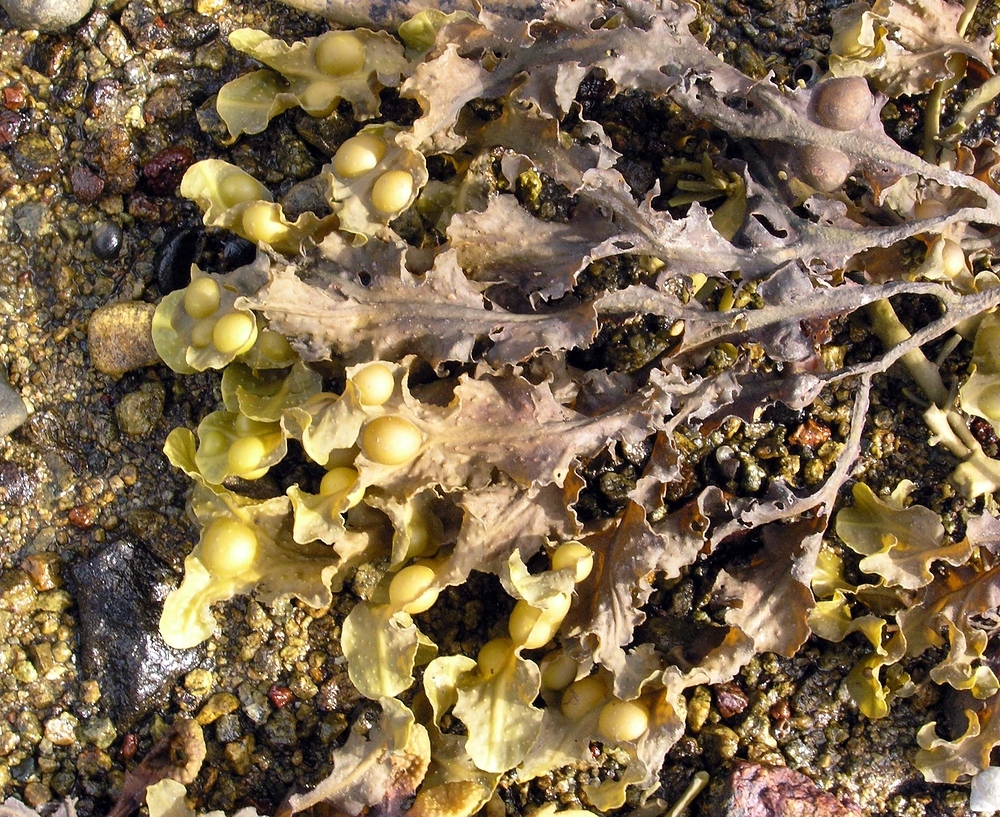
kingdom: Chromista
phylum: Ochrophyta
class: Phaeophyceae
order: Fucales
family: Fucaceae
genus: Fucus
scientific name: Fucus spiralis
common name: Spiral wrack
